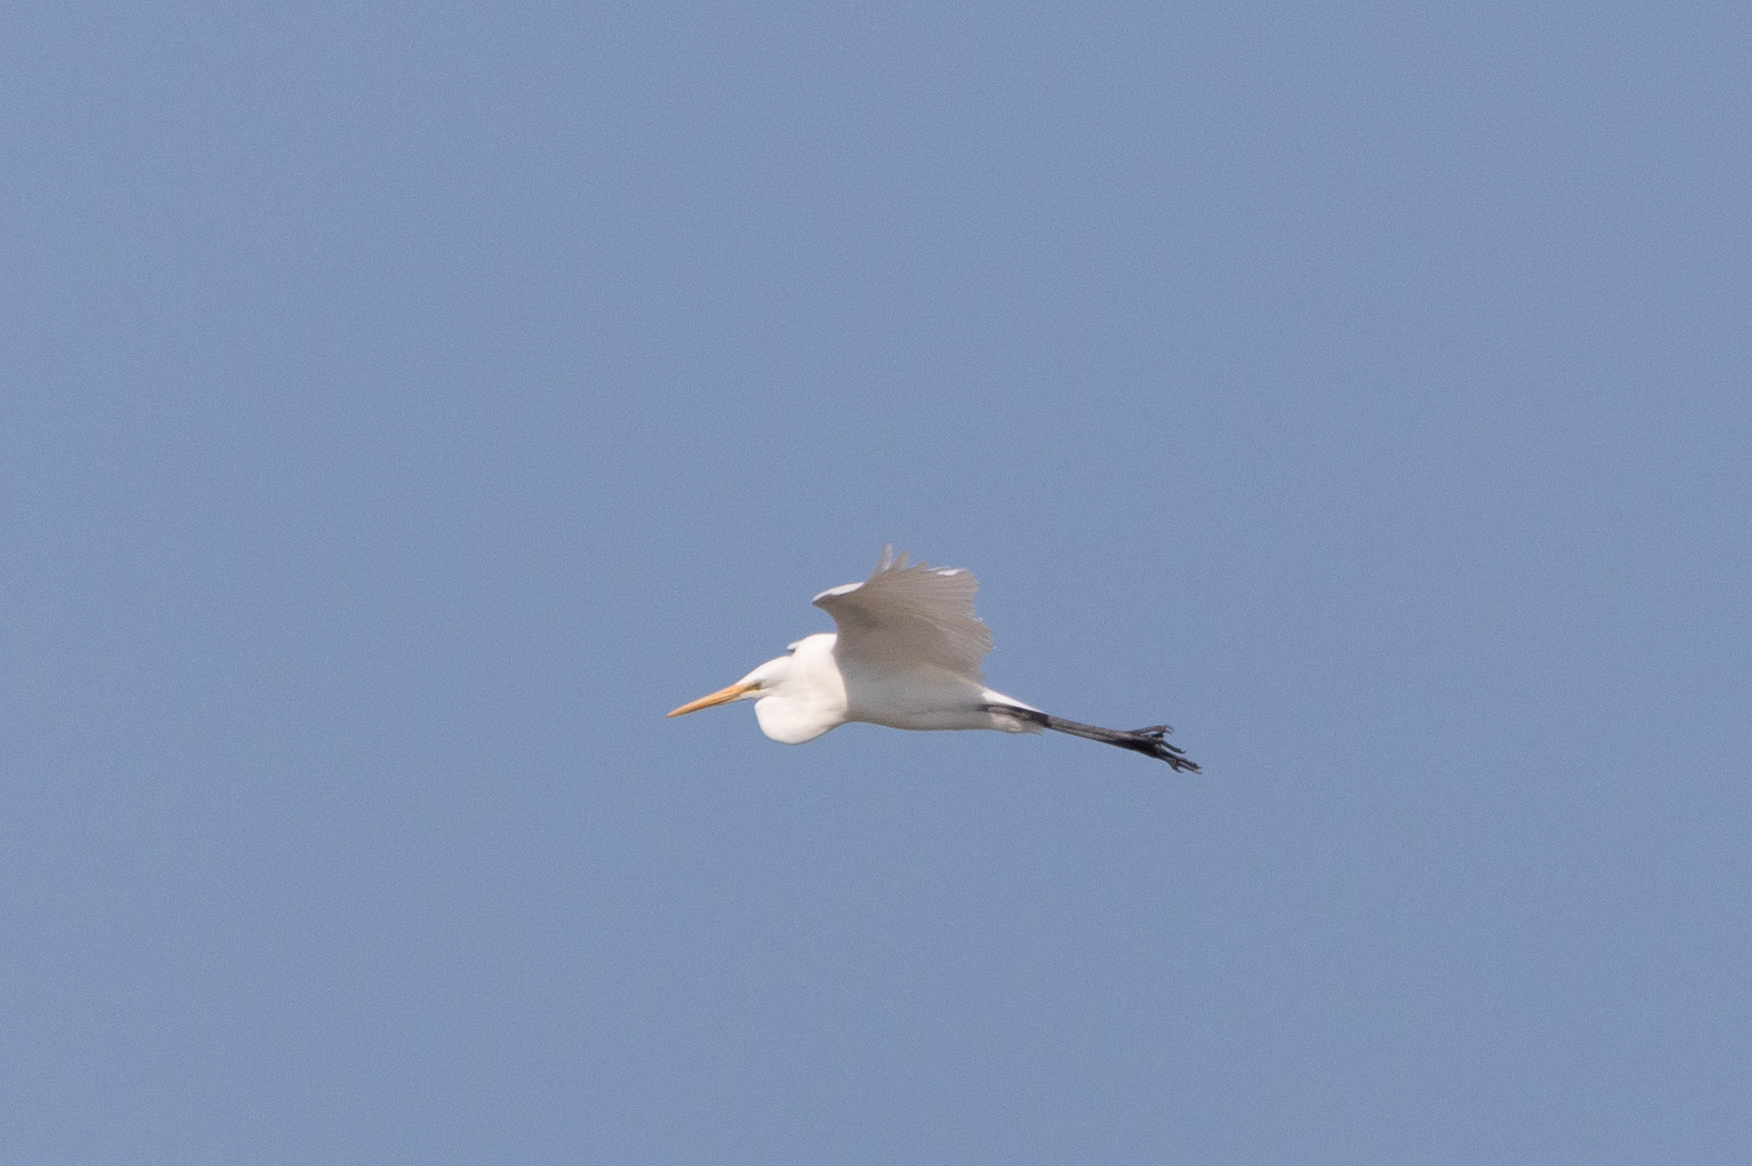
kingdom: Animalia
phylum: Chordata
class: Aves
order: Pelecaniformes
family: Ardeidae
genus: Ardea
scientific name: Ardea alba
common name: Great egret
